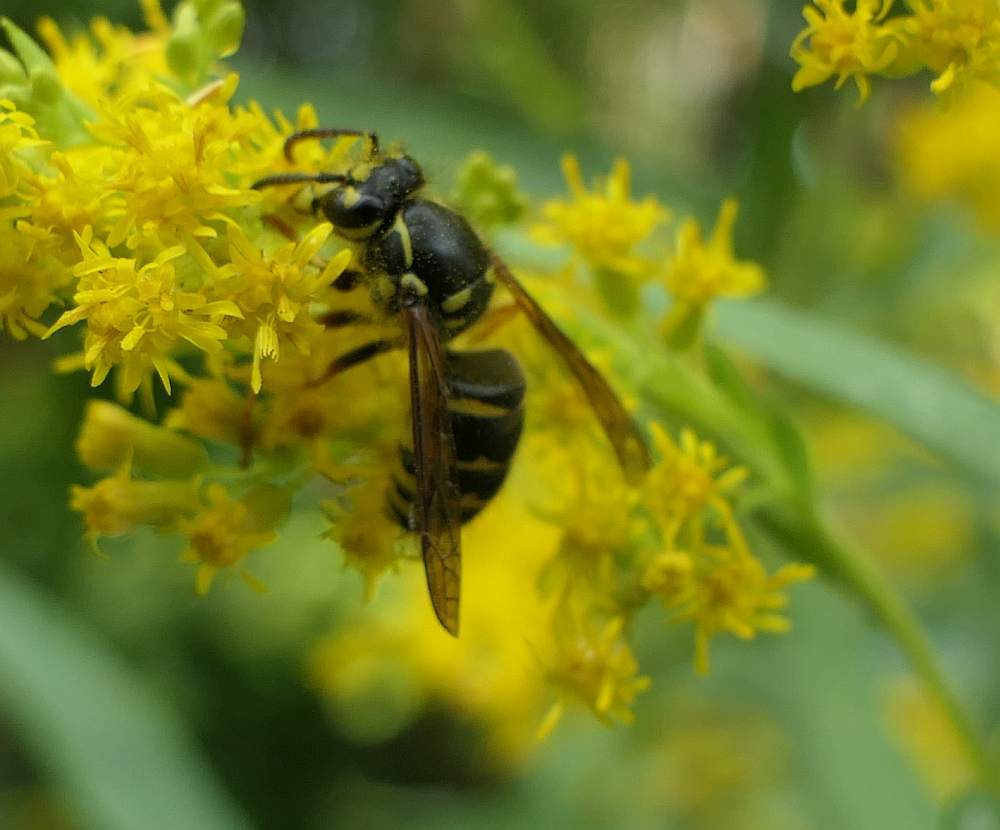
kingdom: Animalia
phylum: Arthropoda
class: Insecta
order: Hymenoptera
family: Vespidae
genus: Dolichovespula
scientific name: Dolichovespula arenaria
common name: Aerial yellowjacket
